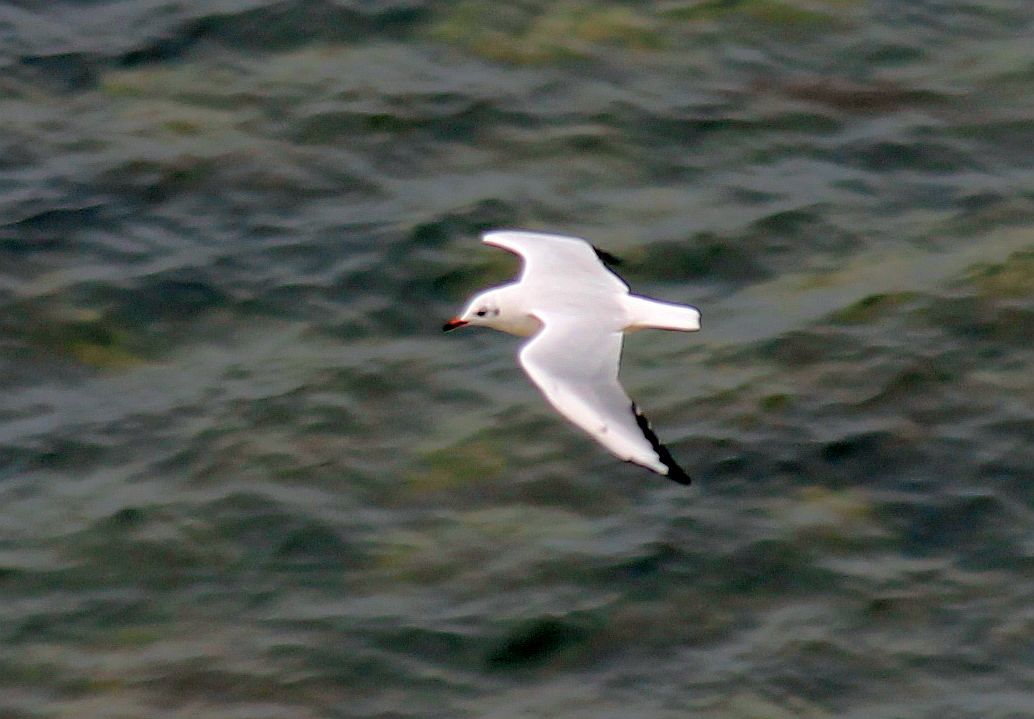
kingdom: Animalia
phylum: Chordata
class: Aves
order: Charadriiformes
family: Laridae
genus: Chroicocephalus
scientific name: Chroicocephalus ridibundus
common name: Black-headed gull
